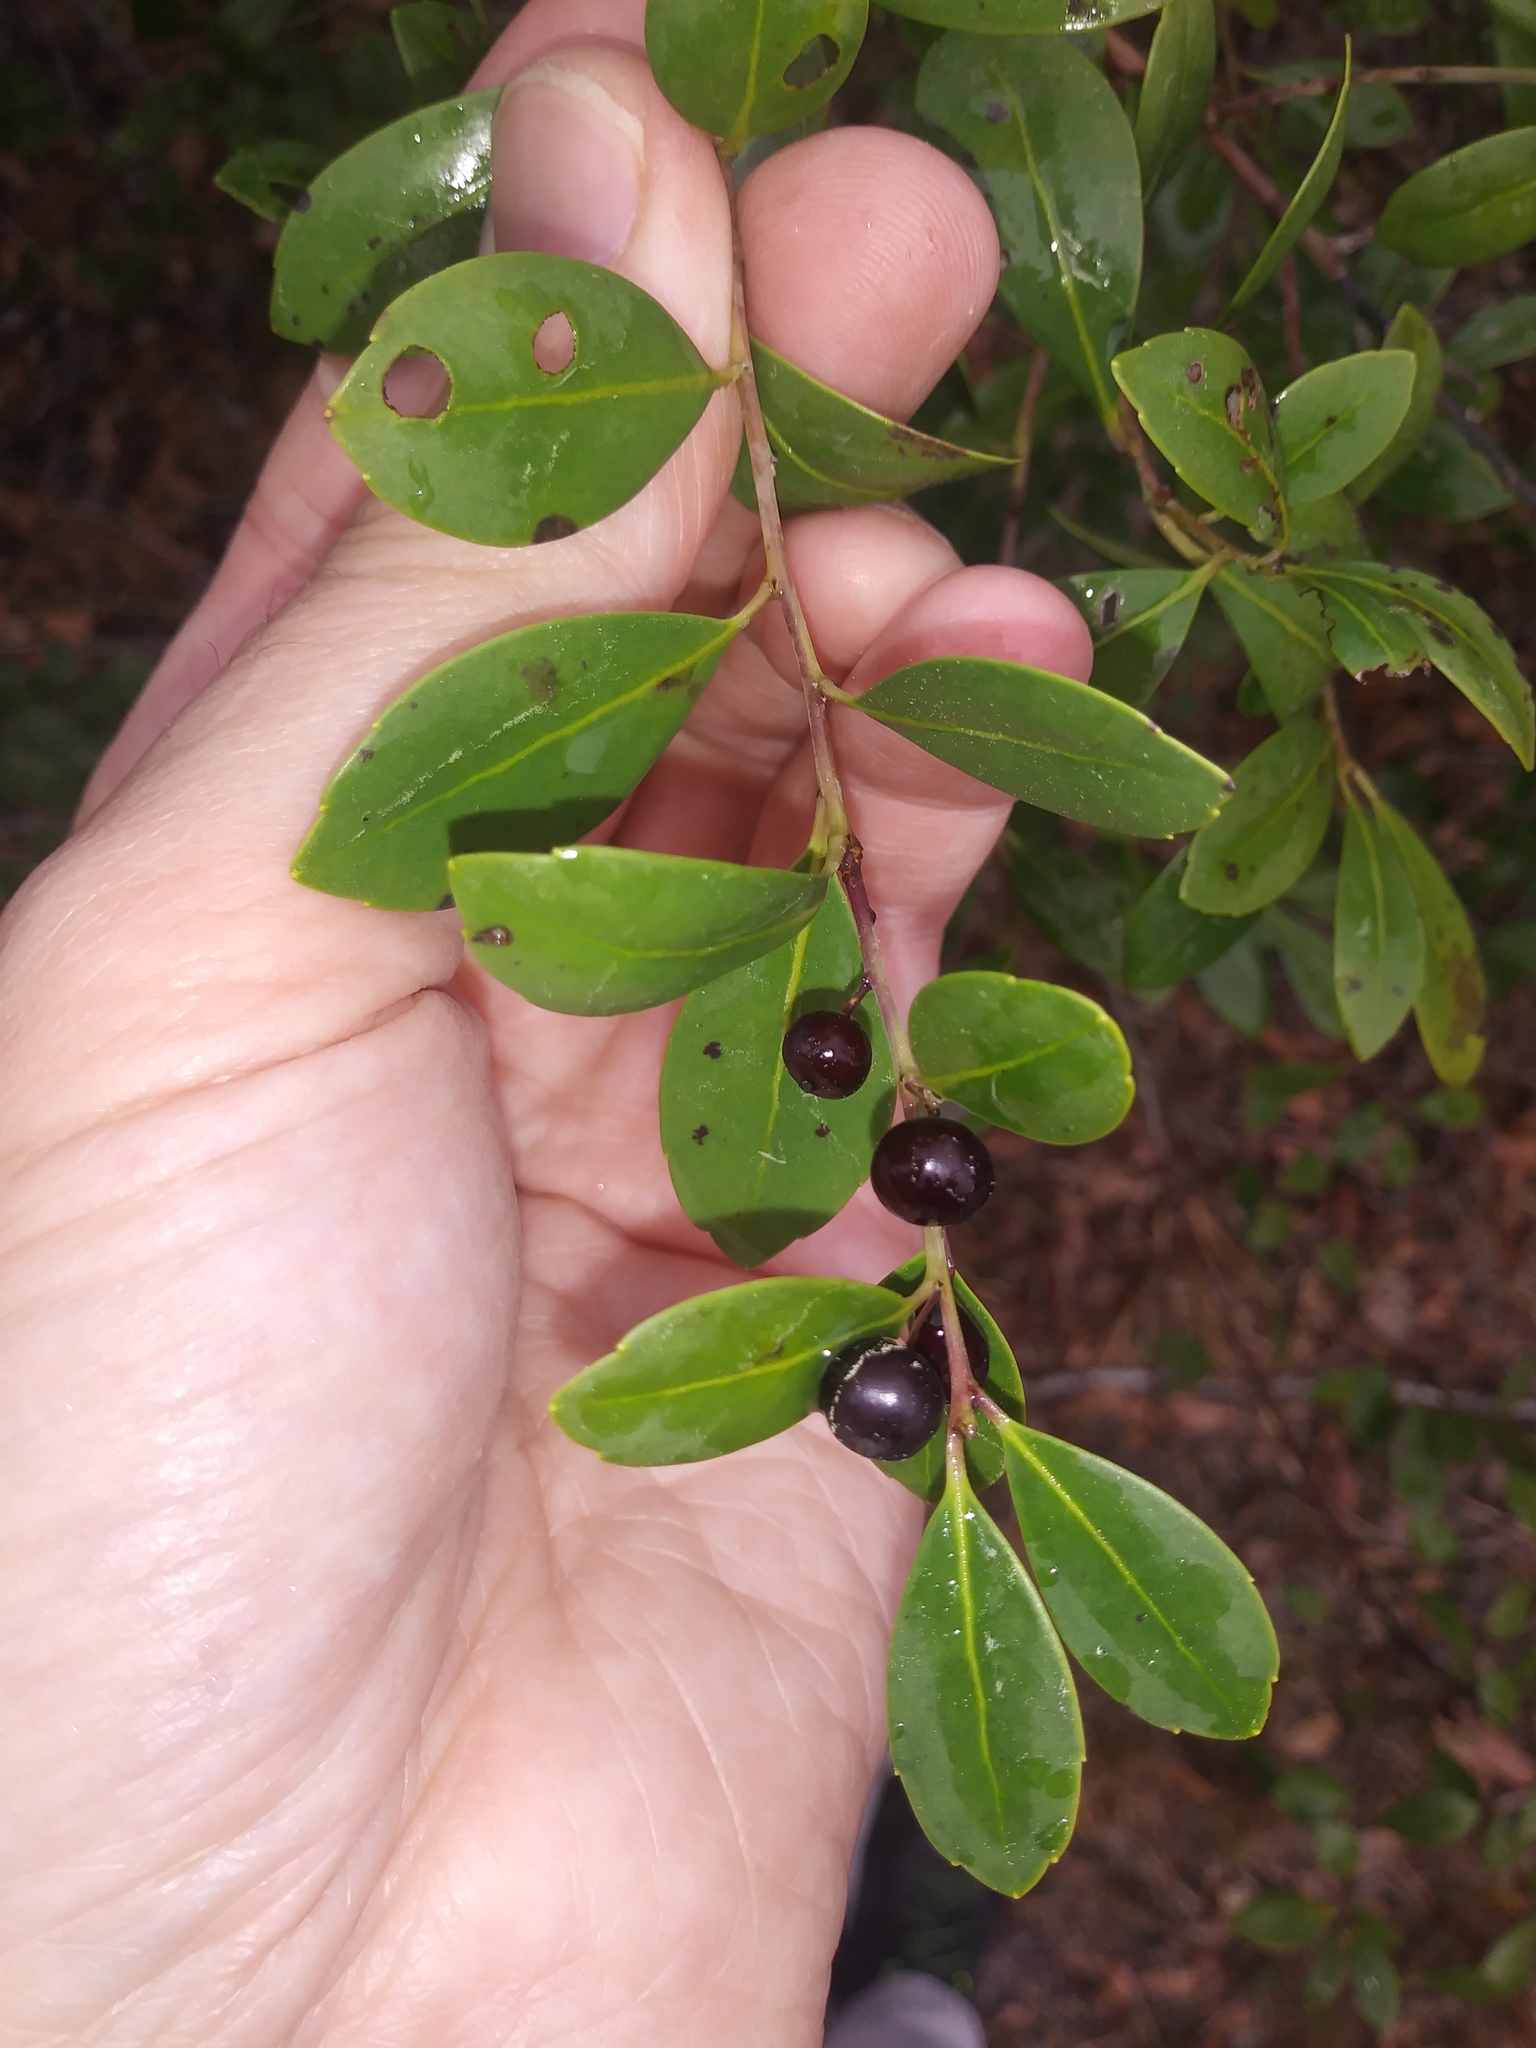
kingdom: Plantae
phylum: Tracheophyta
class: Magnoliopsida
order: Aquifoliales
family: Aquifoliaceae
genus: Ilex
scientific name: Ilex glabra
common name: Bitter gallberry
